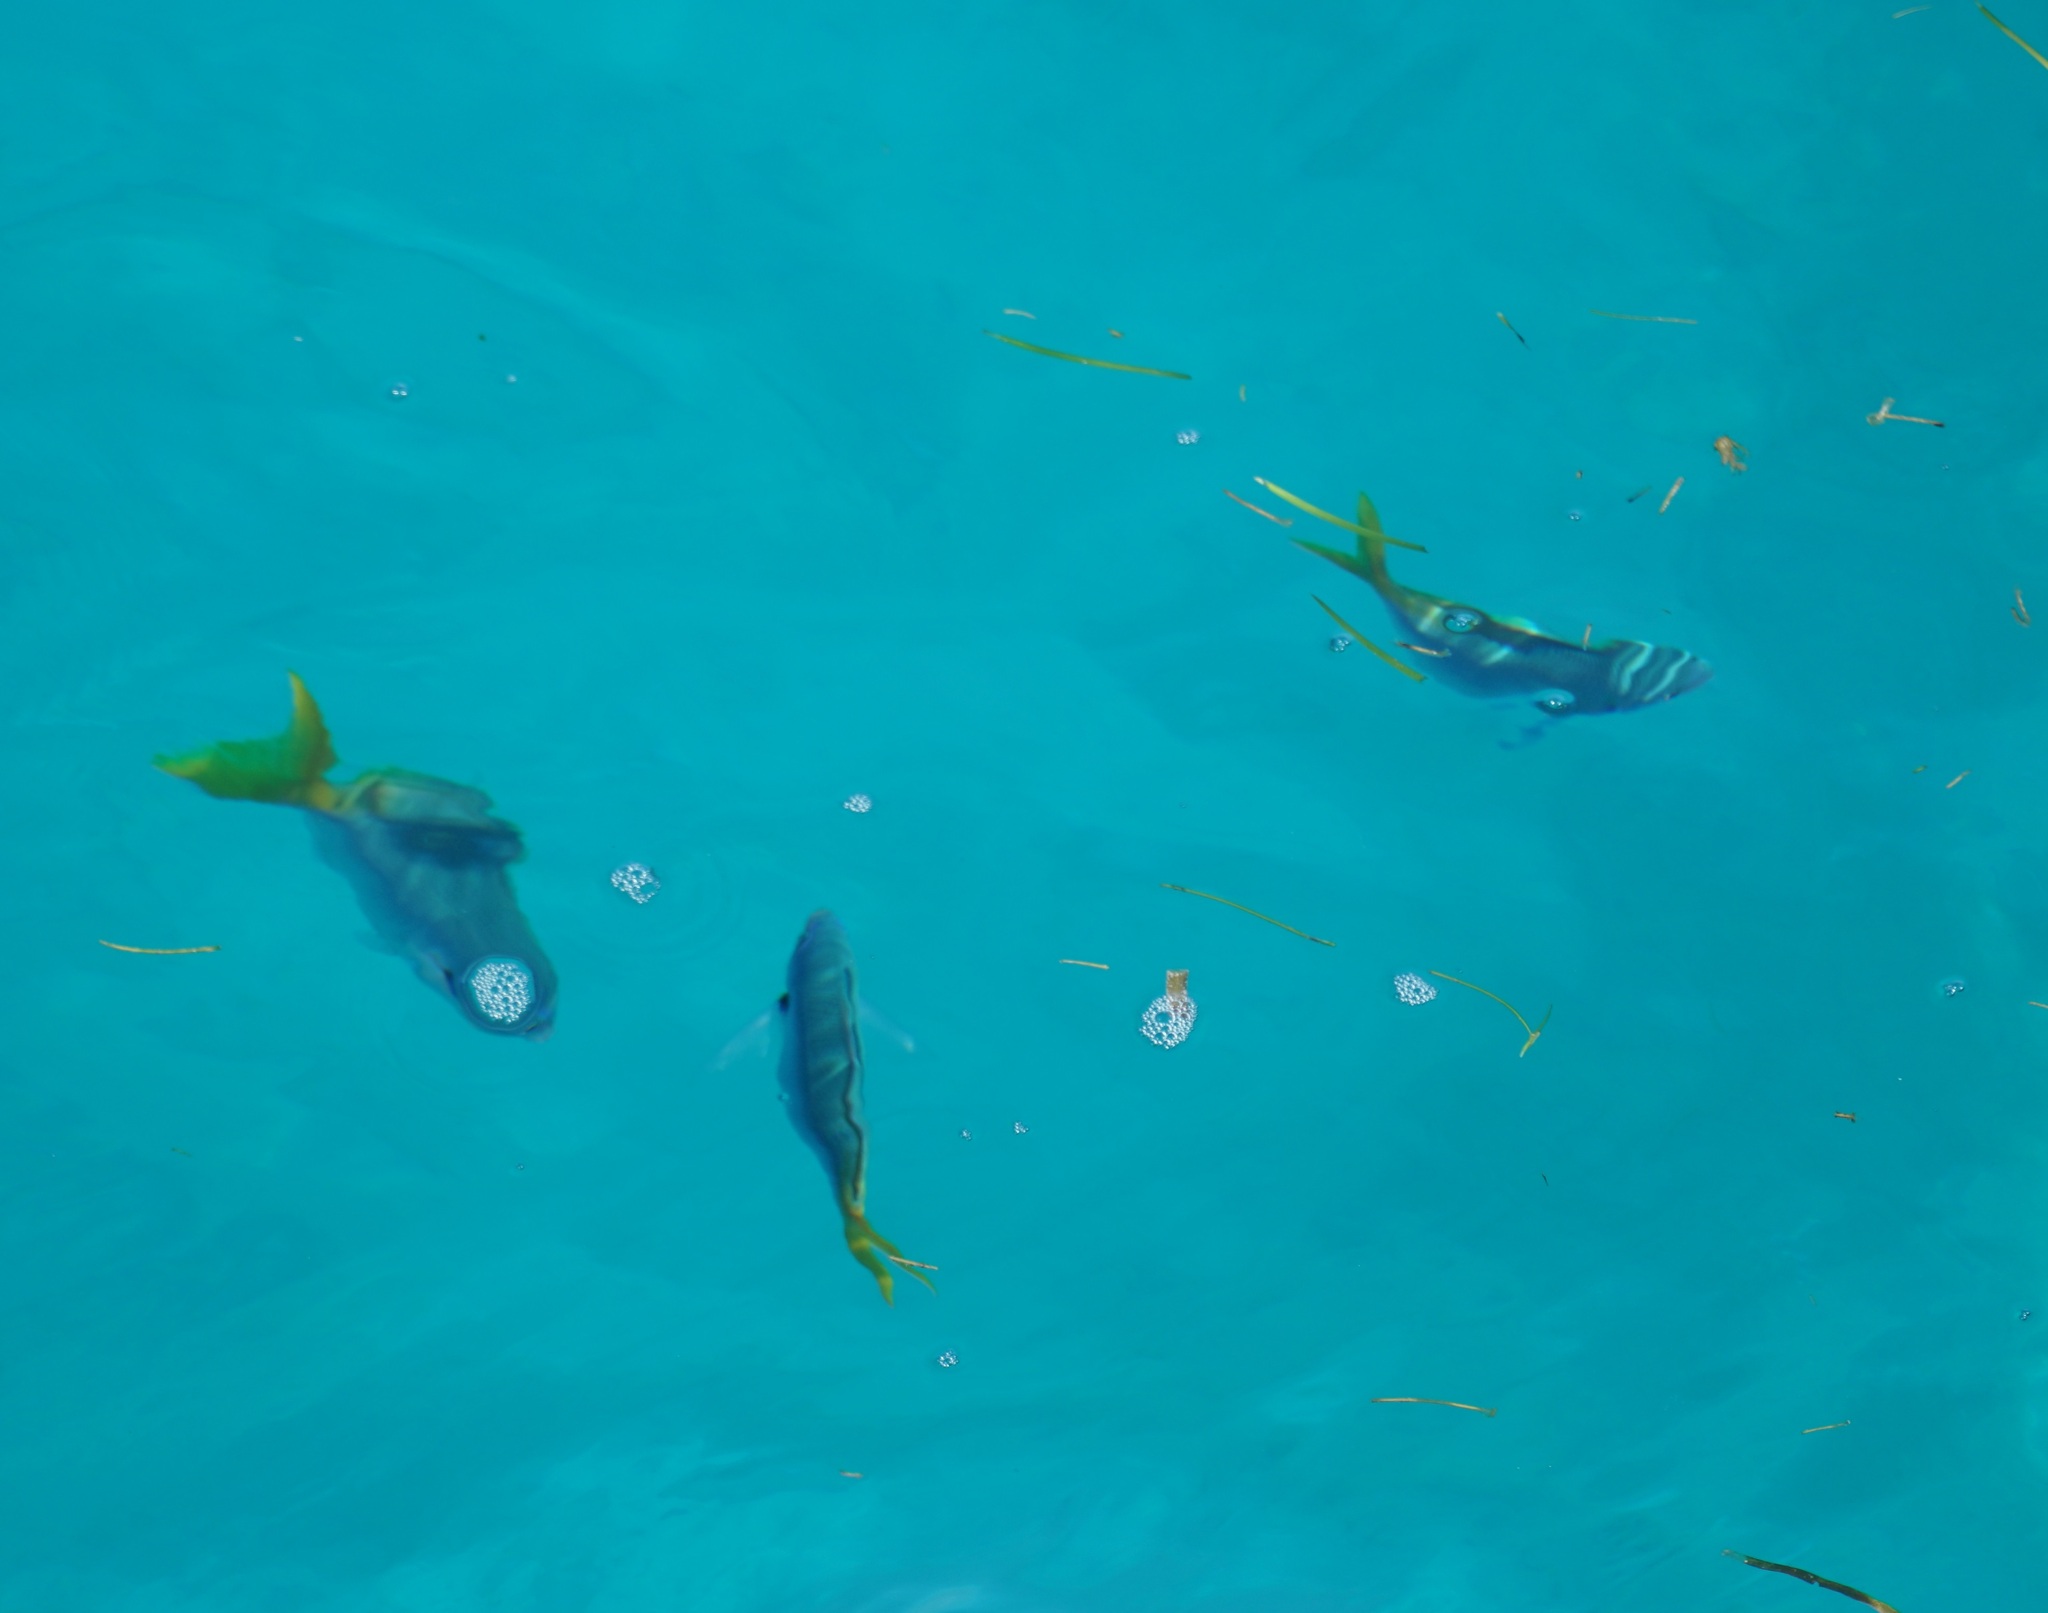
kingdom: Animalia
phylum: Chordata
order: Perciformes
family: Caesionidae
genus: Caesio
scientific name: Caesio cuning
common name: Red-bellied fusilier
